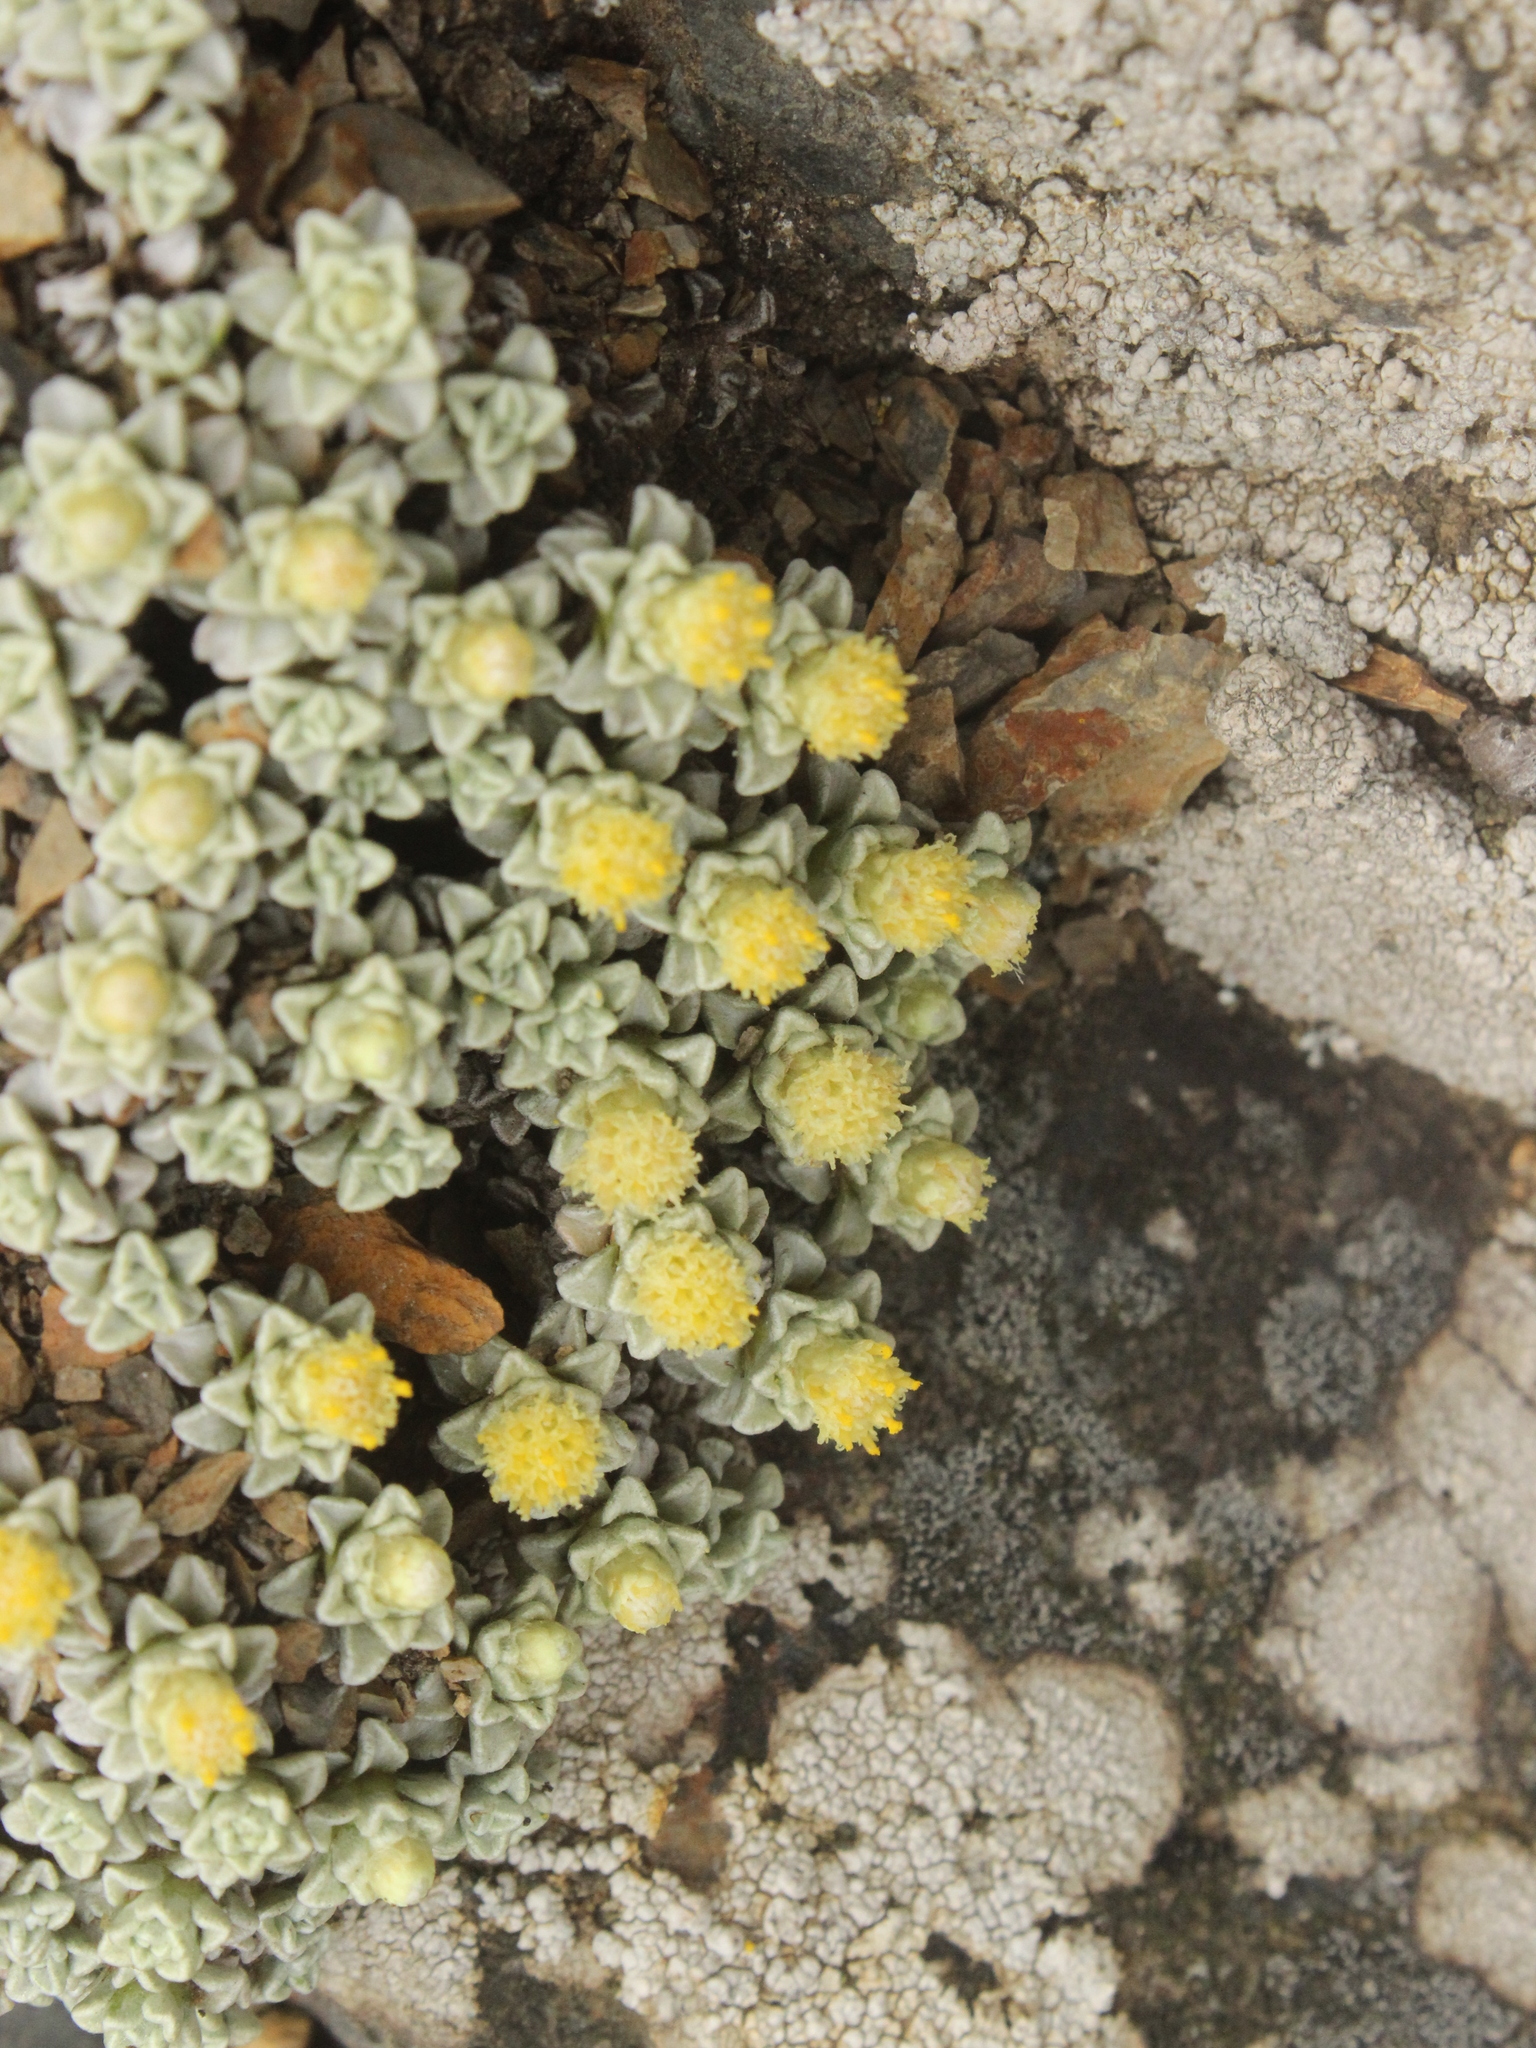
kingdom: Plantae
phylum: Tracheophyta
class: Magnoliopsida
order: Asterales
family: Asteraceae
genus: Raoulia
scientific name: Raoulia hookeri
